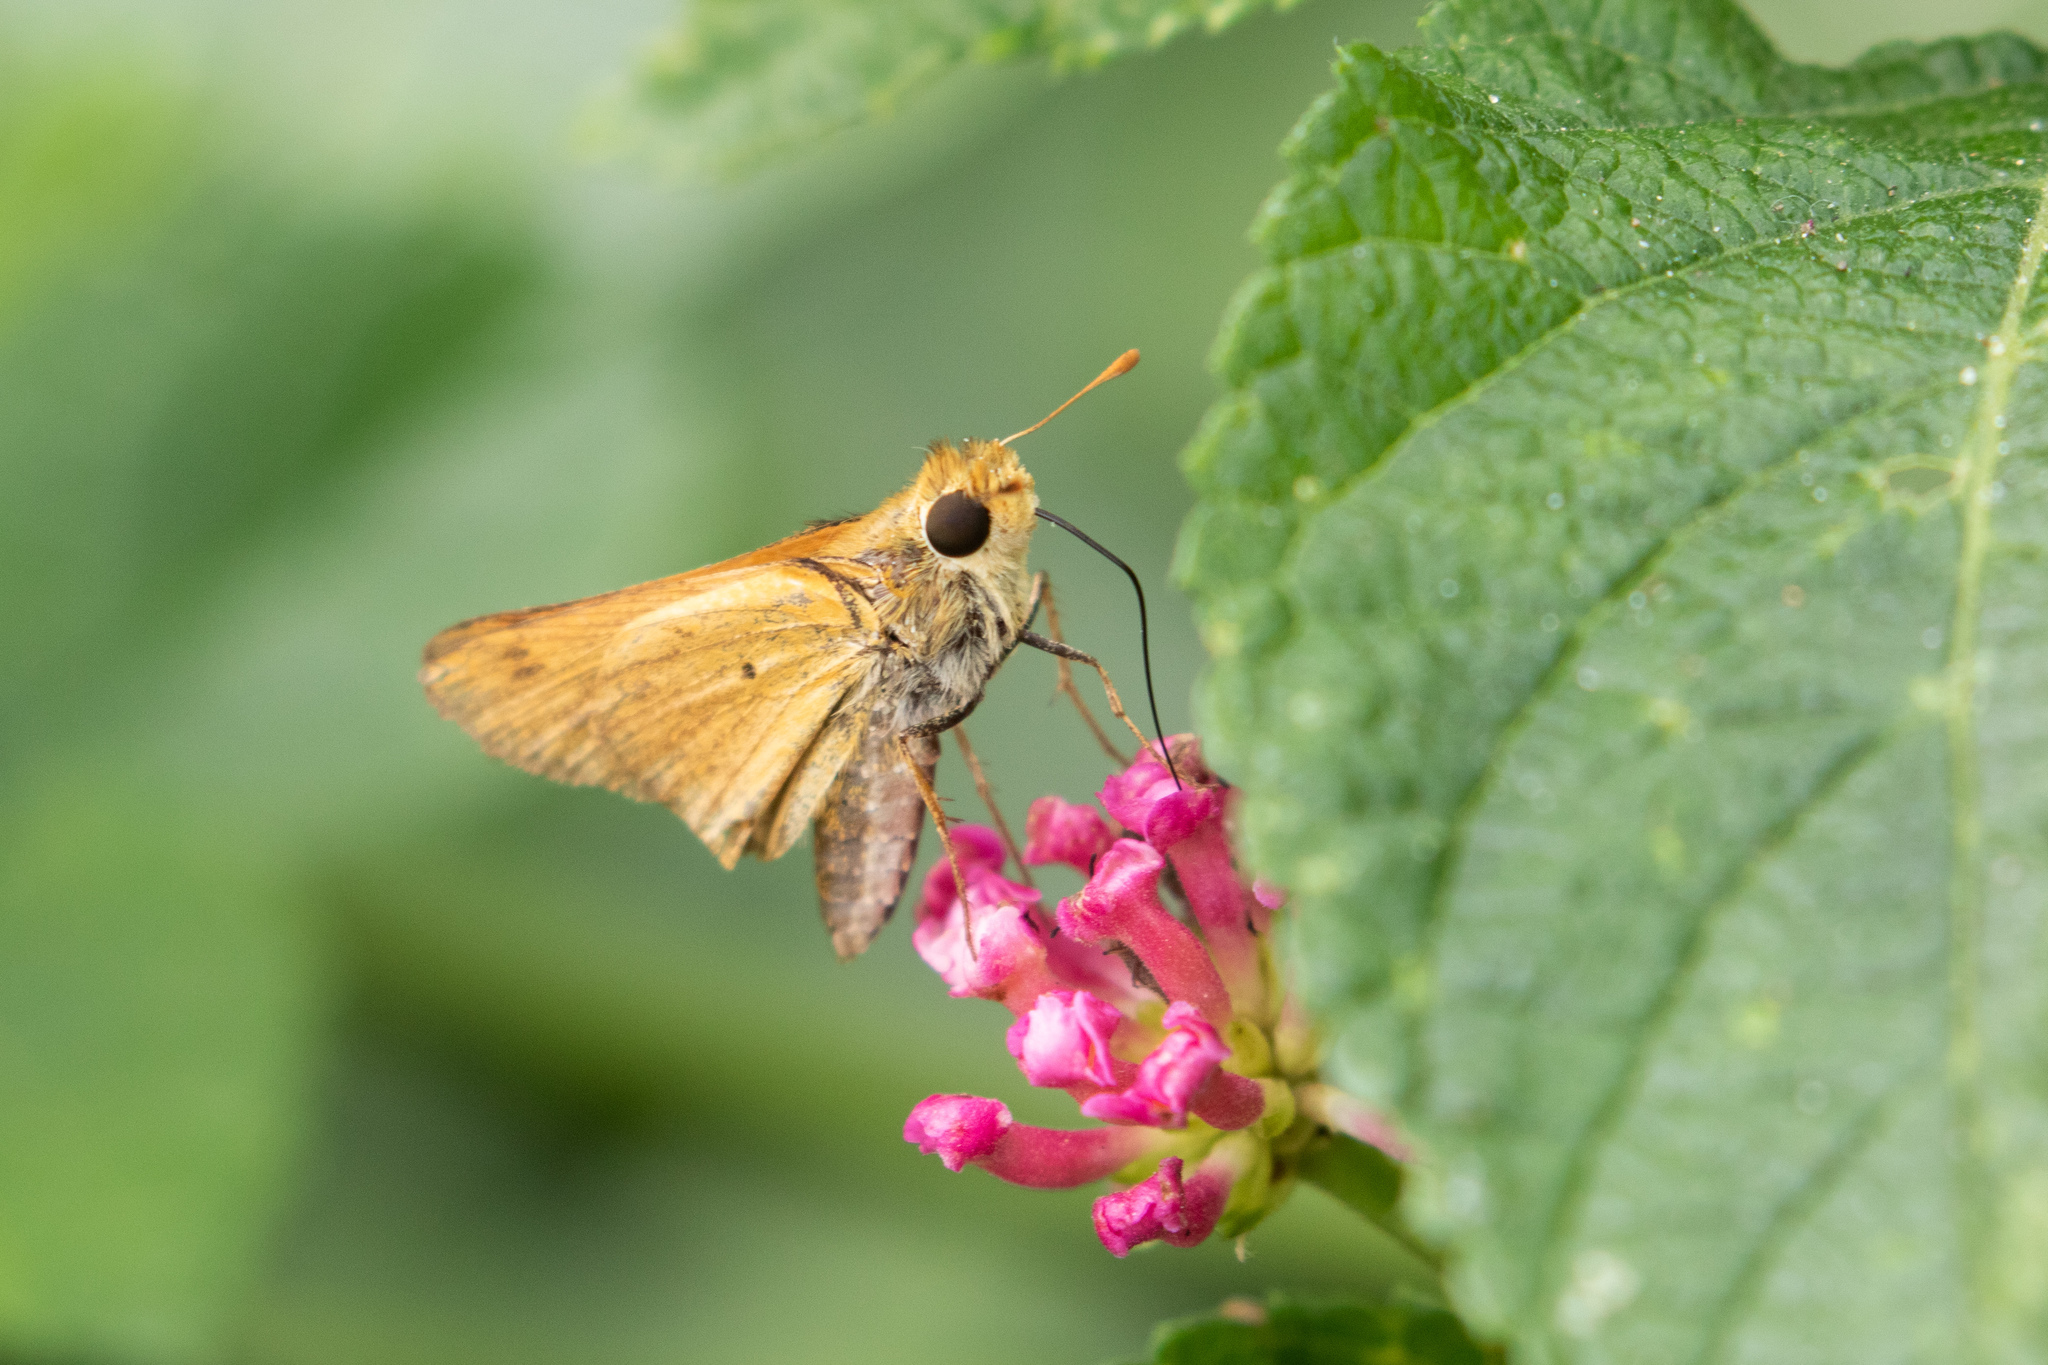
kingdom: Animalia
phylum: Arthropoda
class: Insecta
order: Lepidoptera
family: Hesperiidae
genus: Hylephila
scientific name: Hylephila phyleus
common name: Fiery skipper
